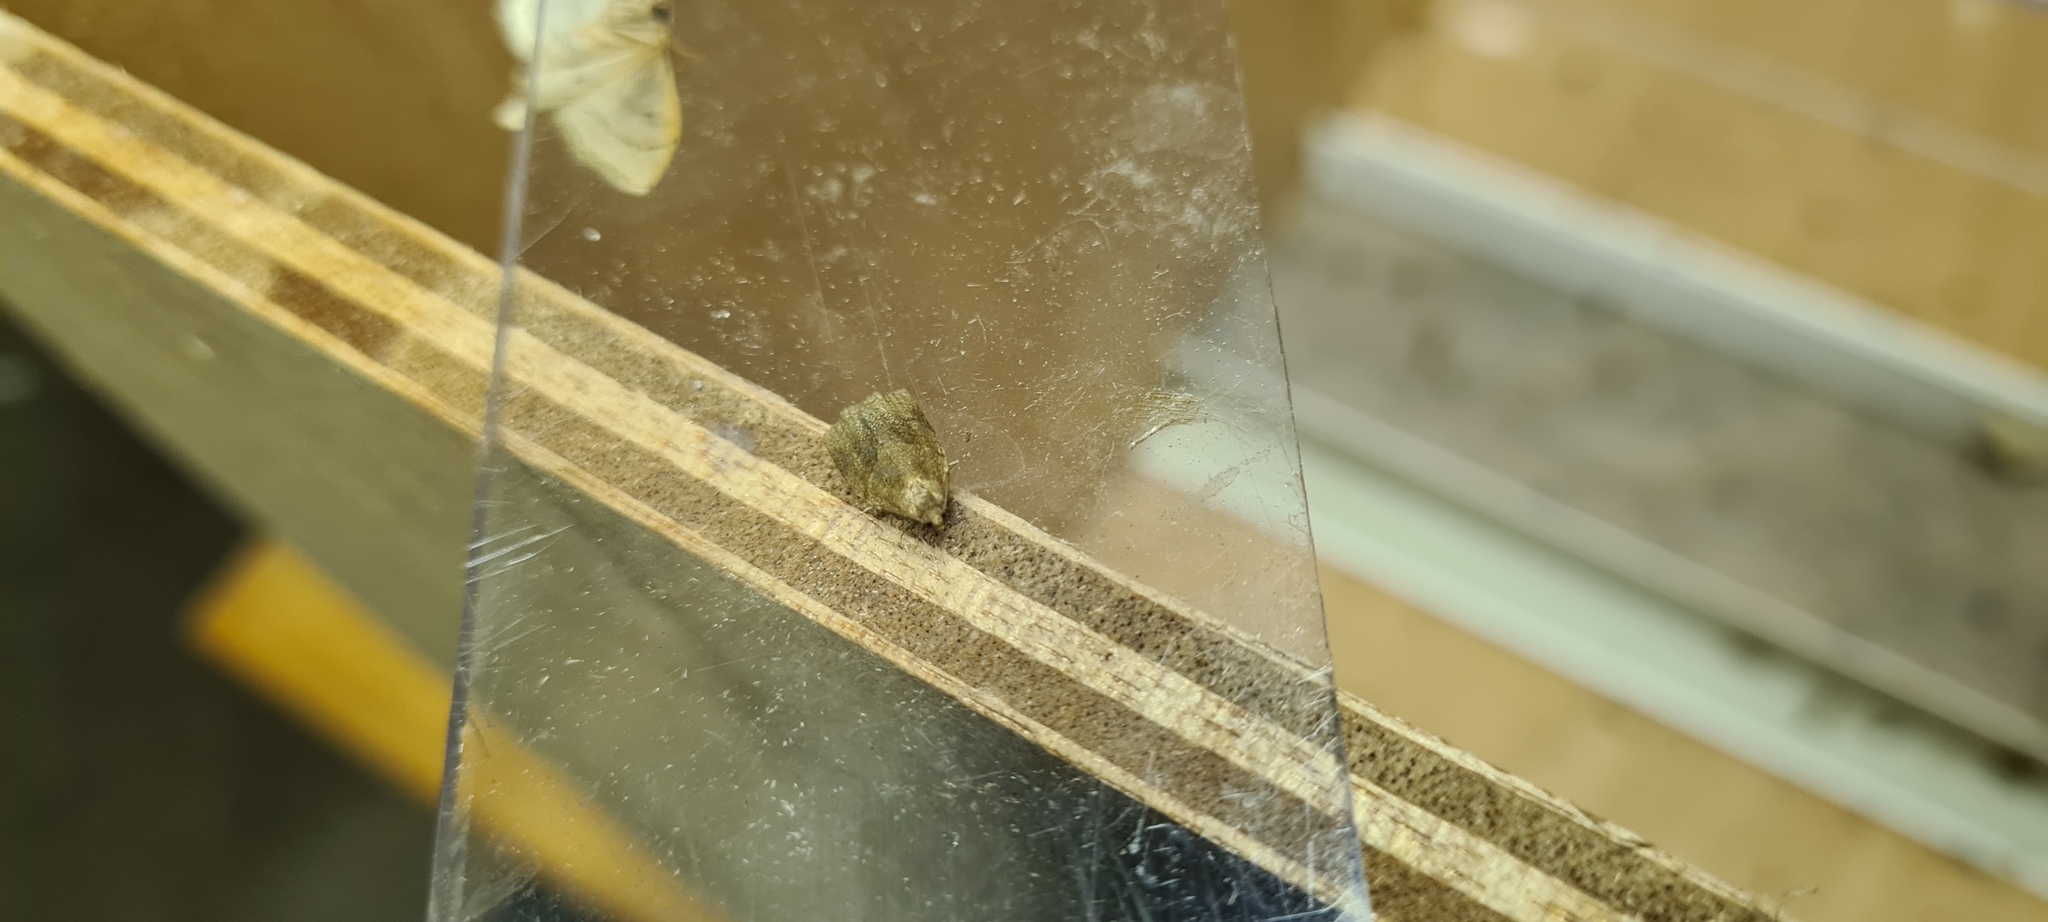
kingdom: Animalia
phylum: Arthropoda
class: Insecta
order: Lepidoptera
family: Tortricidae
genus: Archips
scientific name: Archips rosana
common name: Rose tortrix
